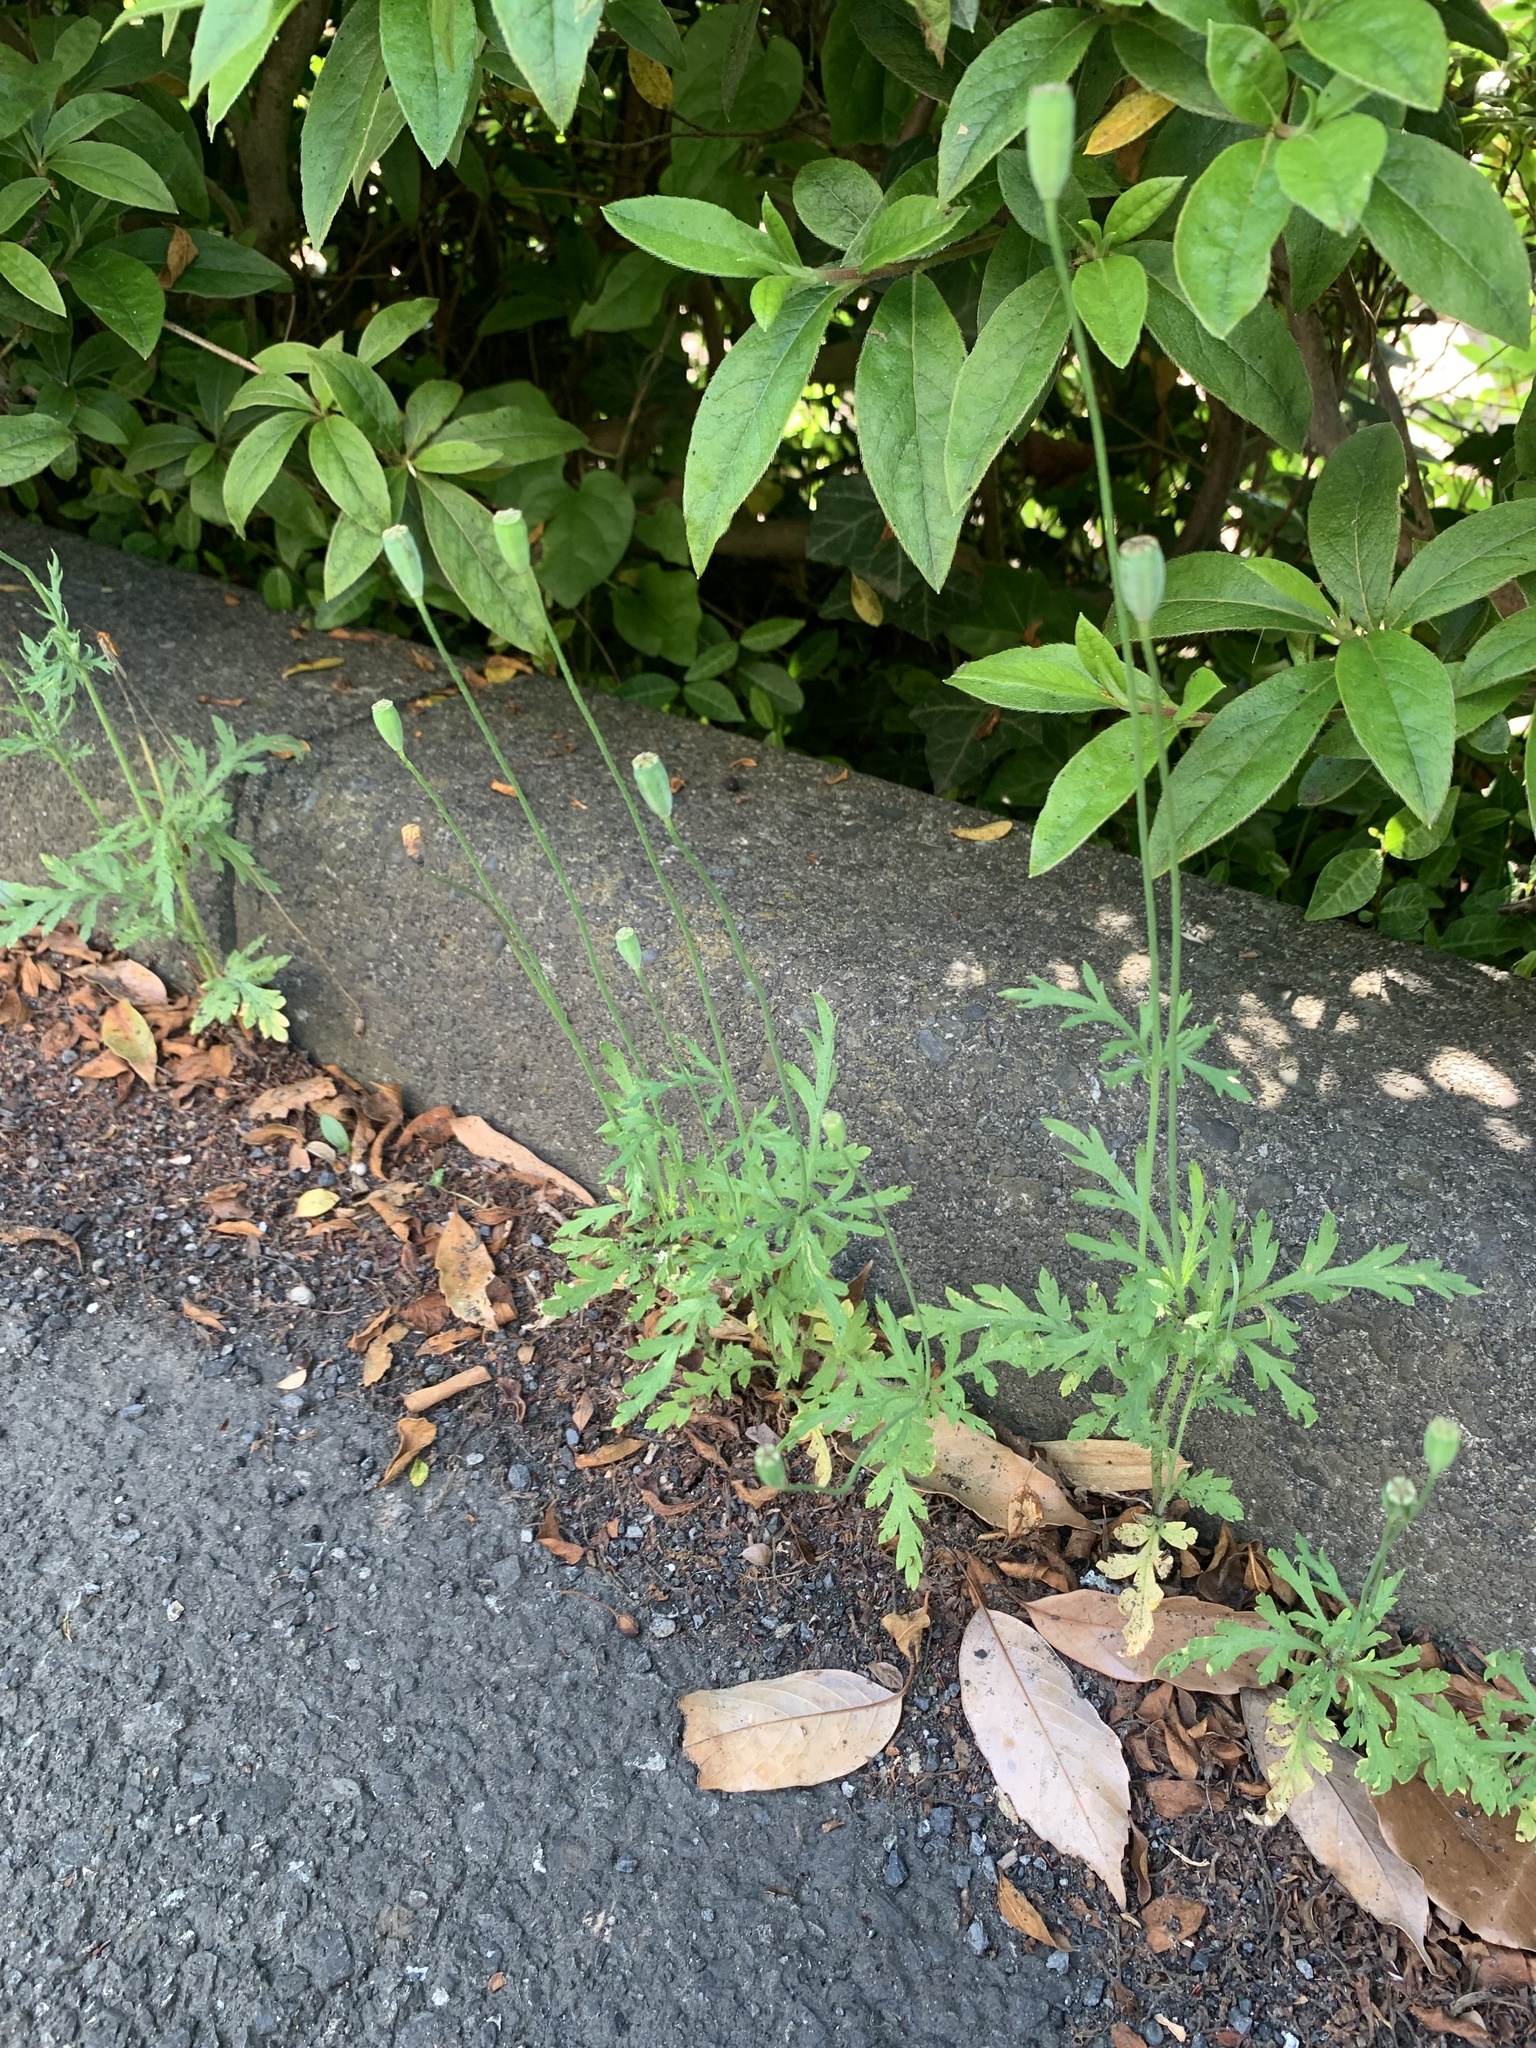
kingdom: Plantae
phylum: Tracheophyta
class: Magnoliopsida
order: Ranunculales
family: Papaveraceae
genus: Papaver
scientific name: Papaver dubium
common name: Long-headed poppy
